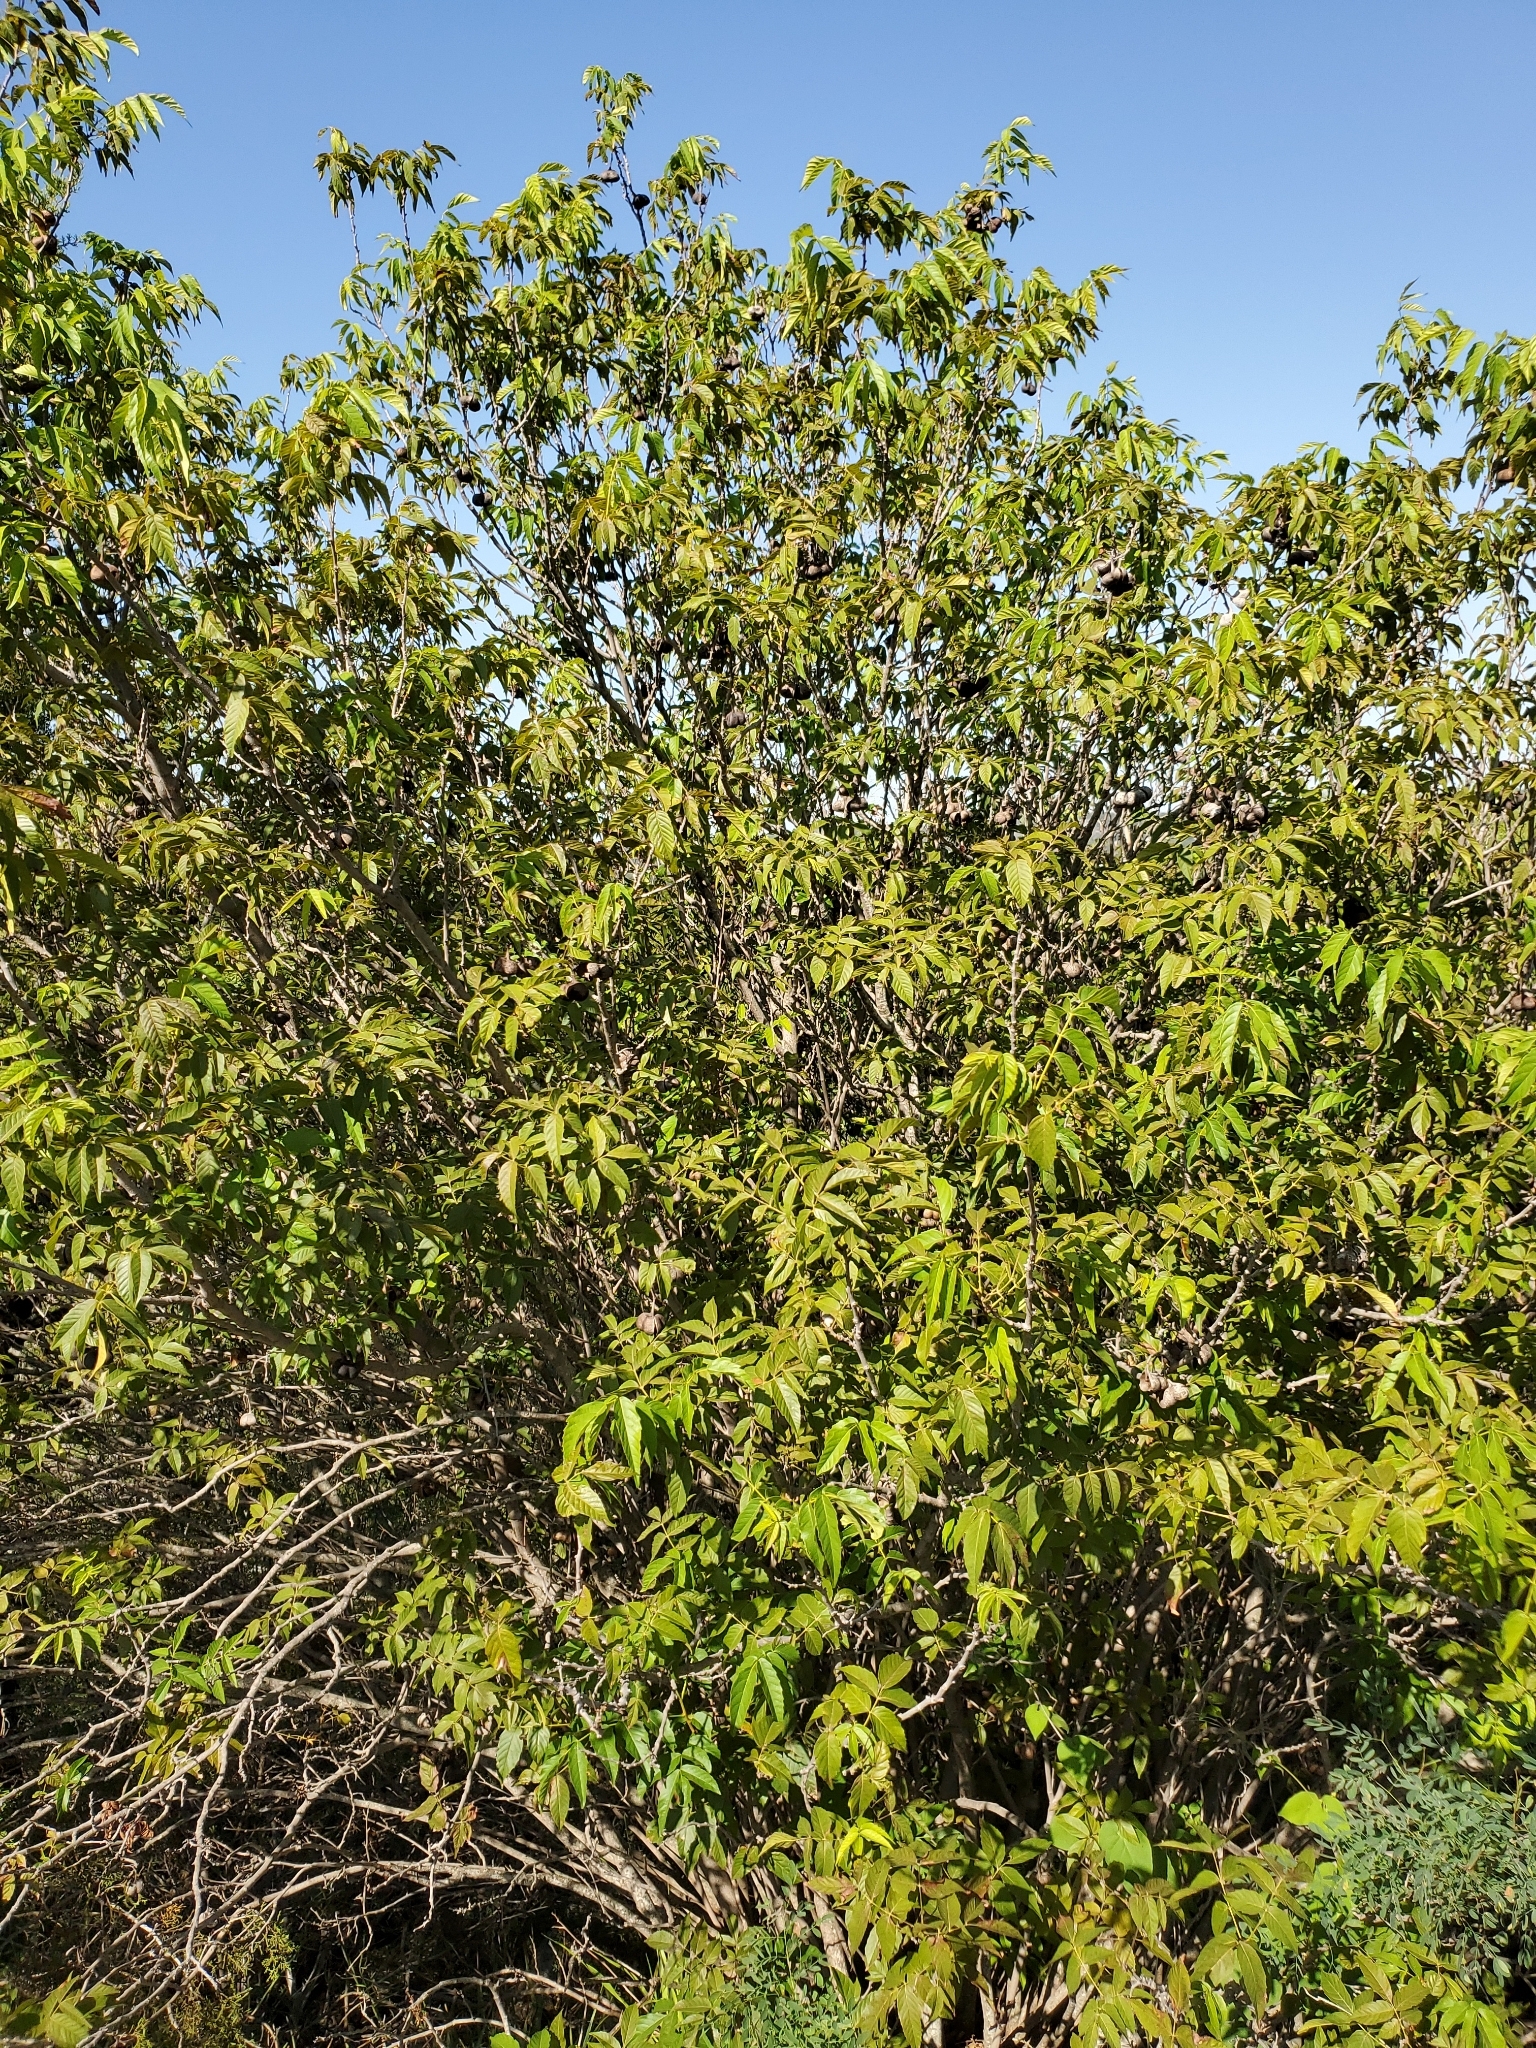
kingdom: Plantae
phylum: Tracheophyta
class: Magnoliopsida
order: Sapindales
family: Sapindaceae
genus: Ungnadia
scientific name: Ungnadia speciosa
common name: Texas-buckeye
